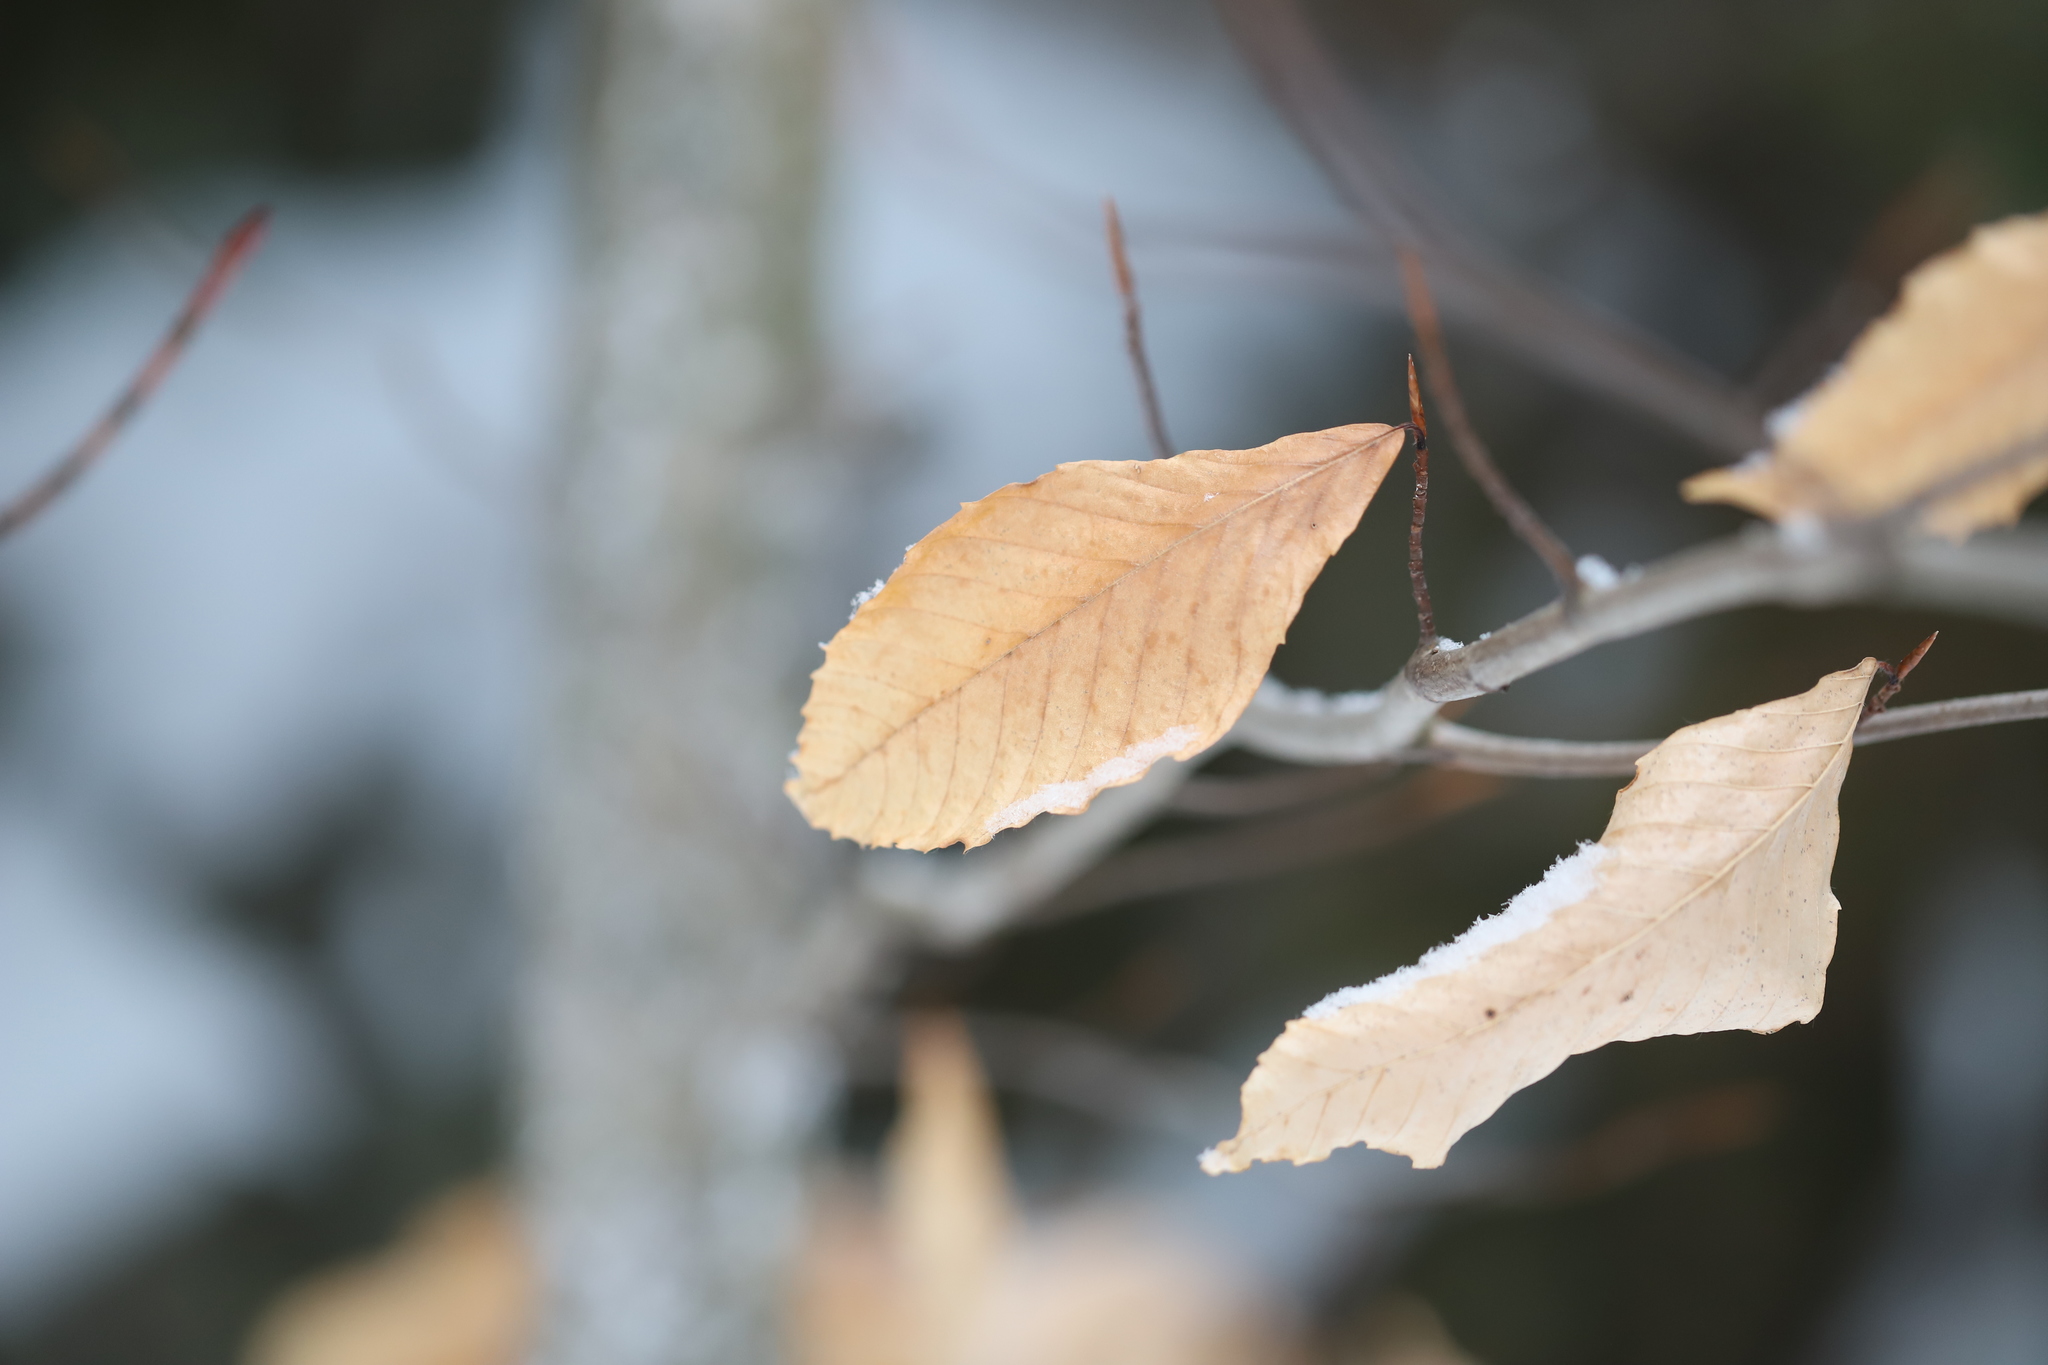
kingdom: Plantae
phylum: Tracheophyta
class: Magnoliopsida
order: Fagales
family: Fagaceae
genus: Fagus
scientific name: Fagus grandifolia
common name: American beech
